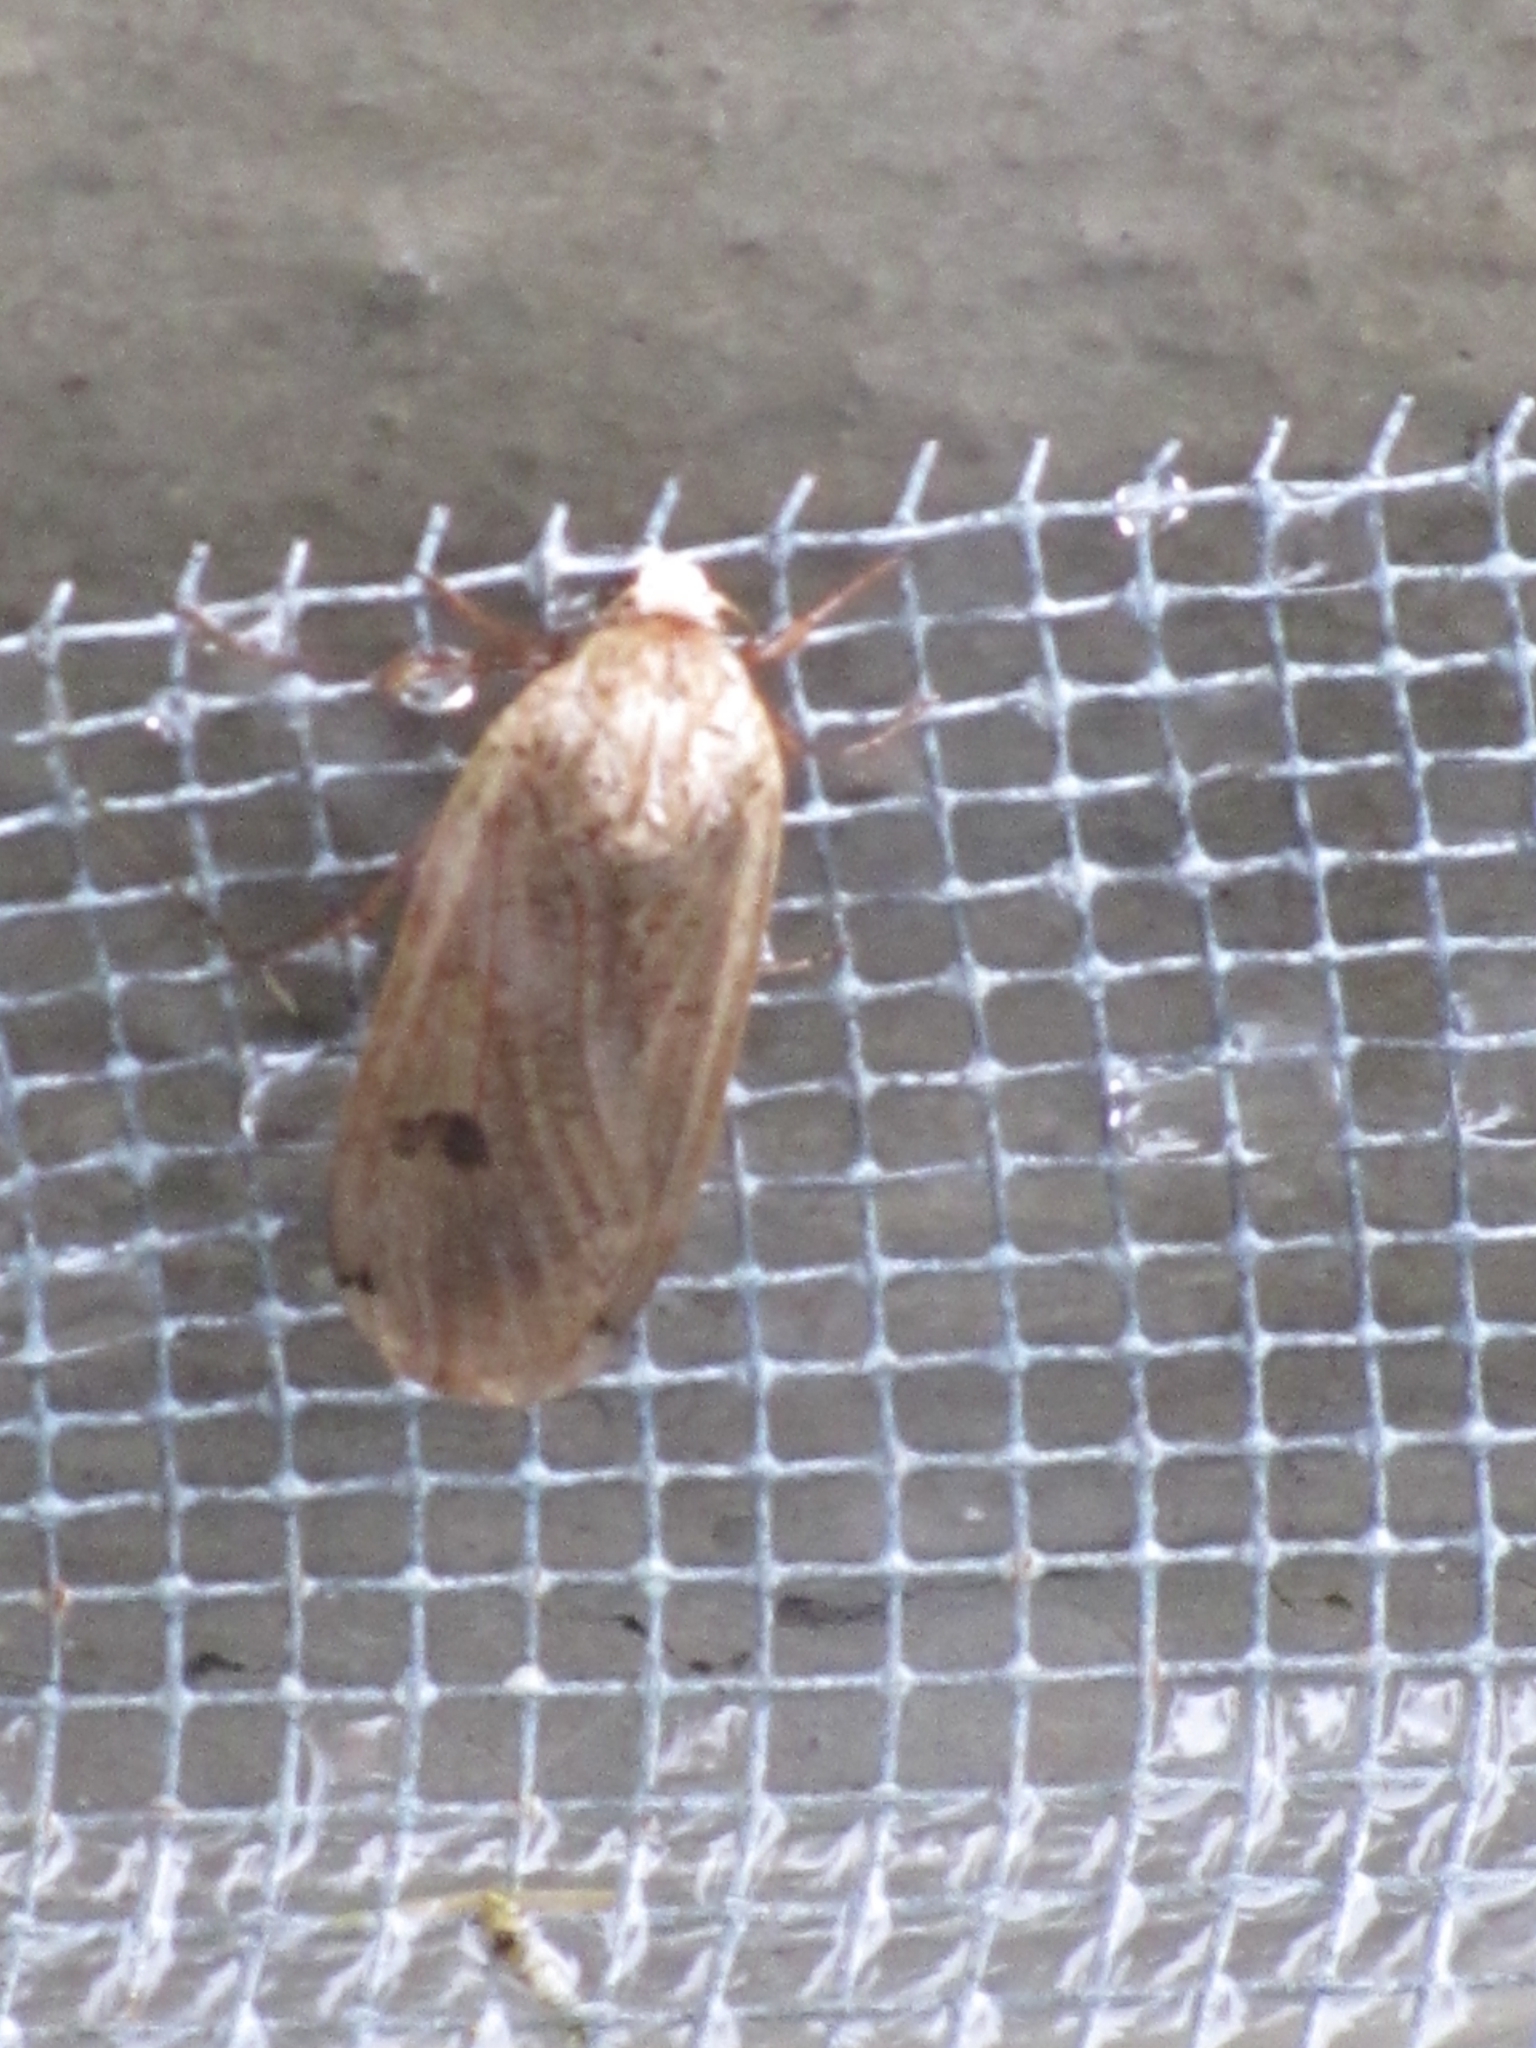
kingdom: Animalia
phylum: Arthropoda
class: Insecta
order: Lepidoptera
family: Noctuidae
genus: Noctua
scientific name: Noctua pronuba
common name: Large yellow underwing
